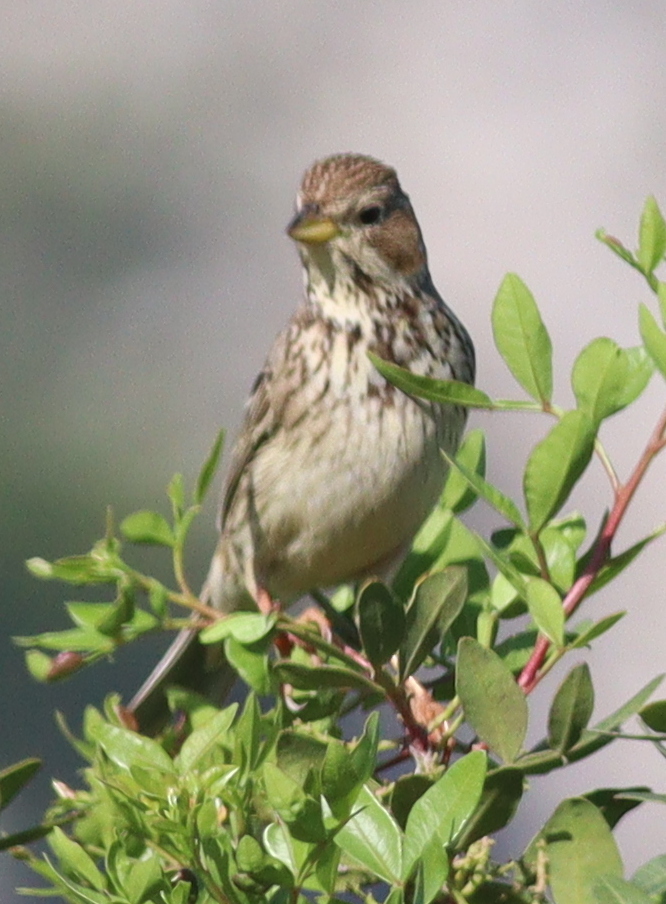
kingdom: Animalia
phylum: Chordata
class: Aves
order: Passeriformes
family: Emberizidae
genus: Emberiza
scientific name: Emberiza calandra
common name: Corn bunting
